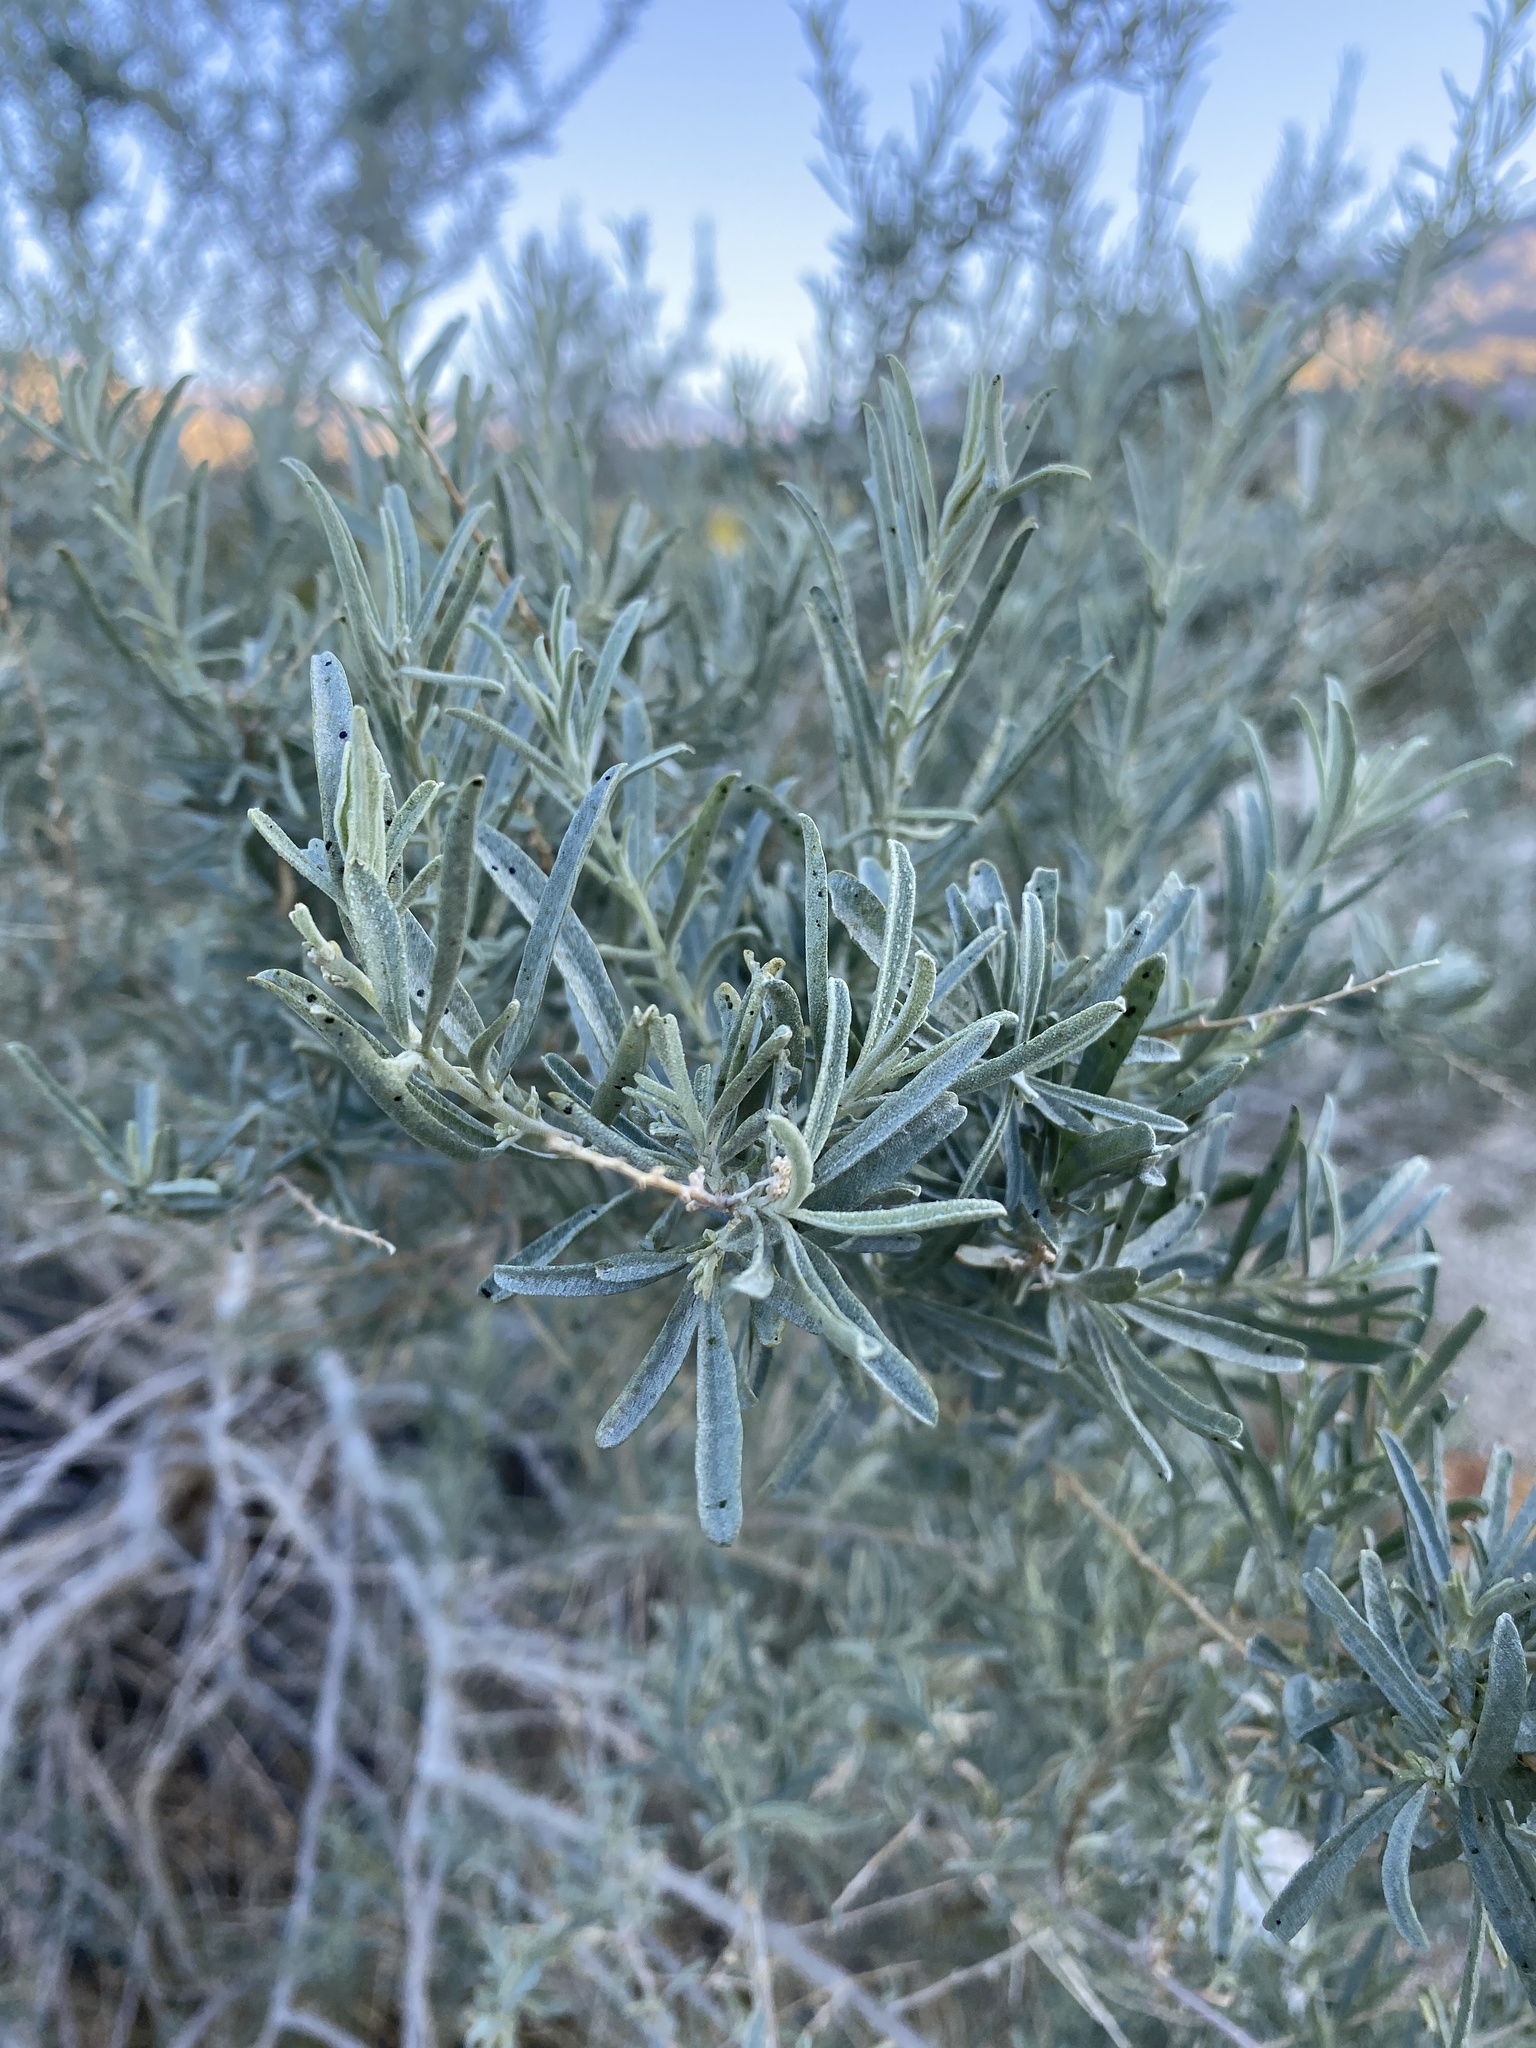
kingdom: Plantae
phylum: Tracheophyta
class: Magnoliopsida
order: Caryophyllales
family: Amaranthaceae
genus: Atriplex
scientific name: Atriplex canescens
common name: Four-wing saltbush
